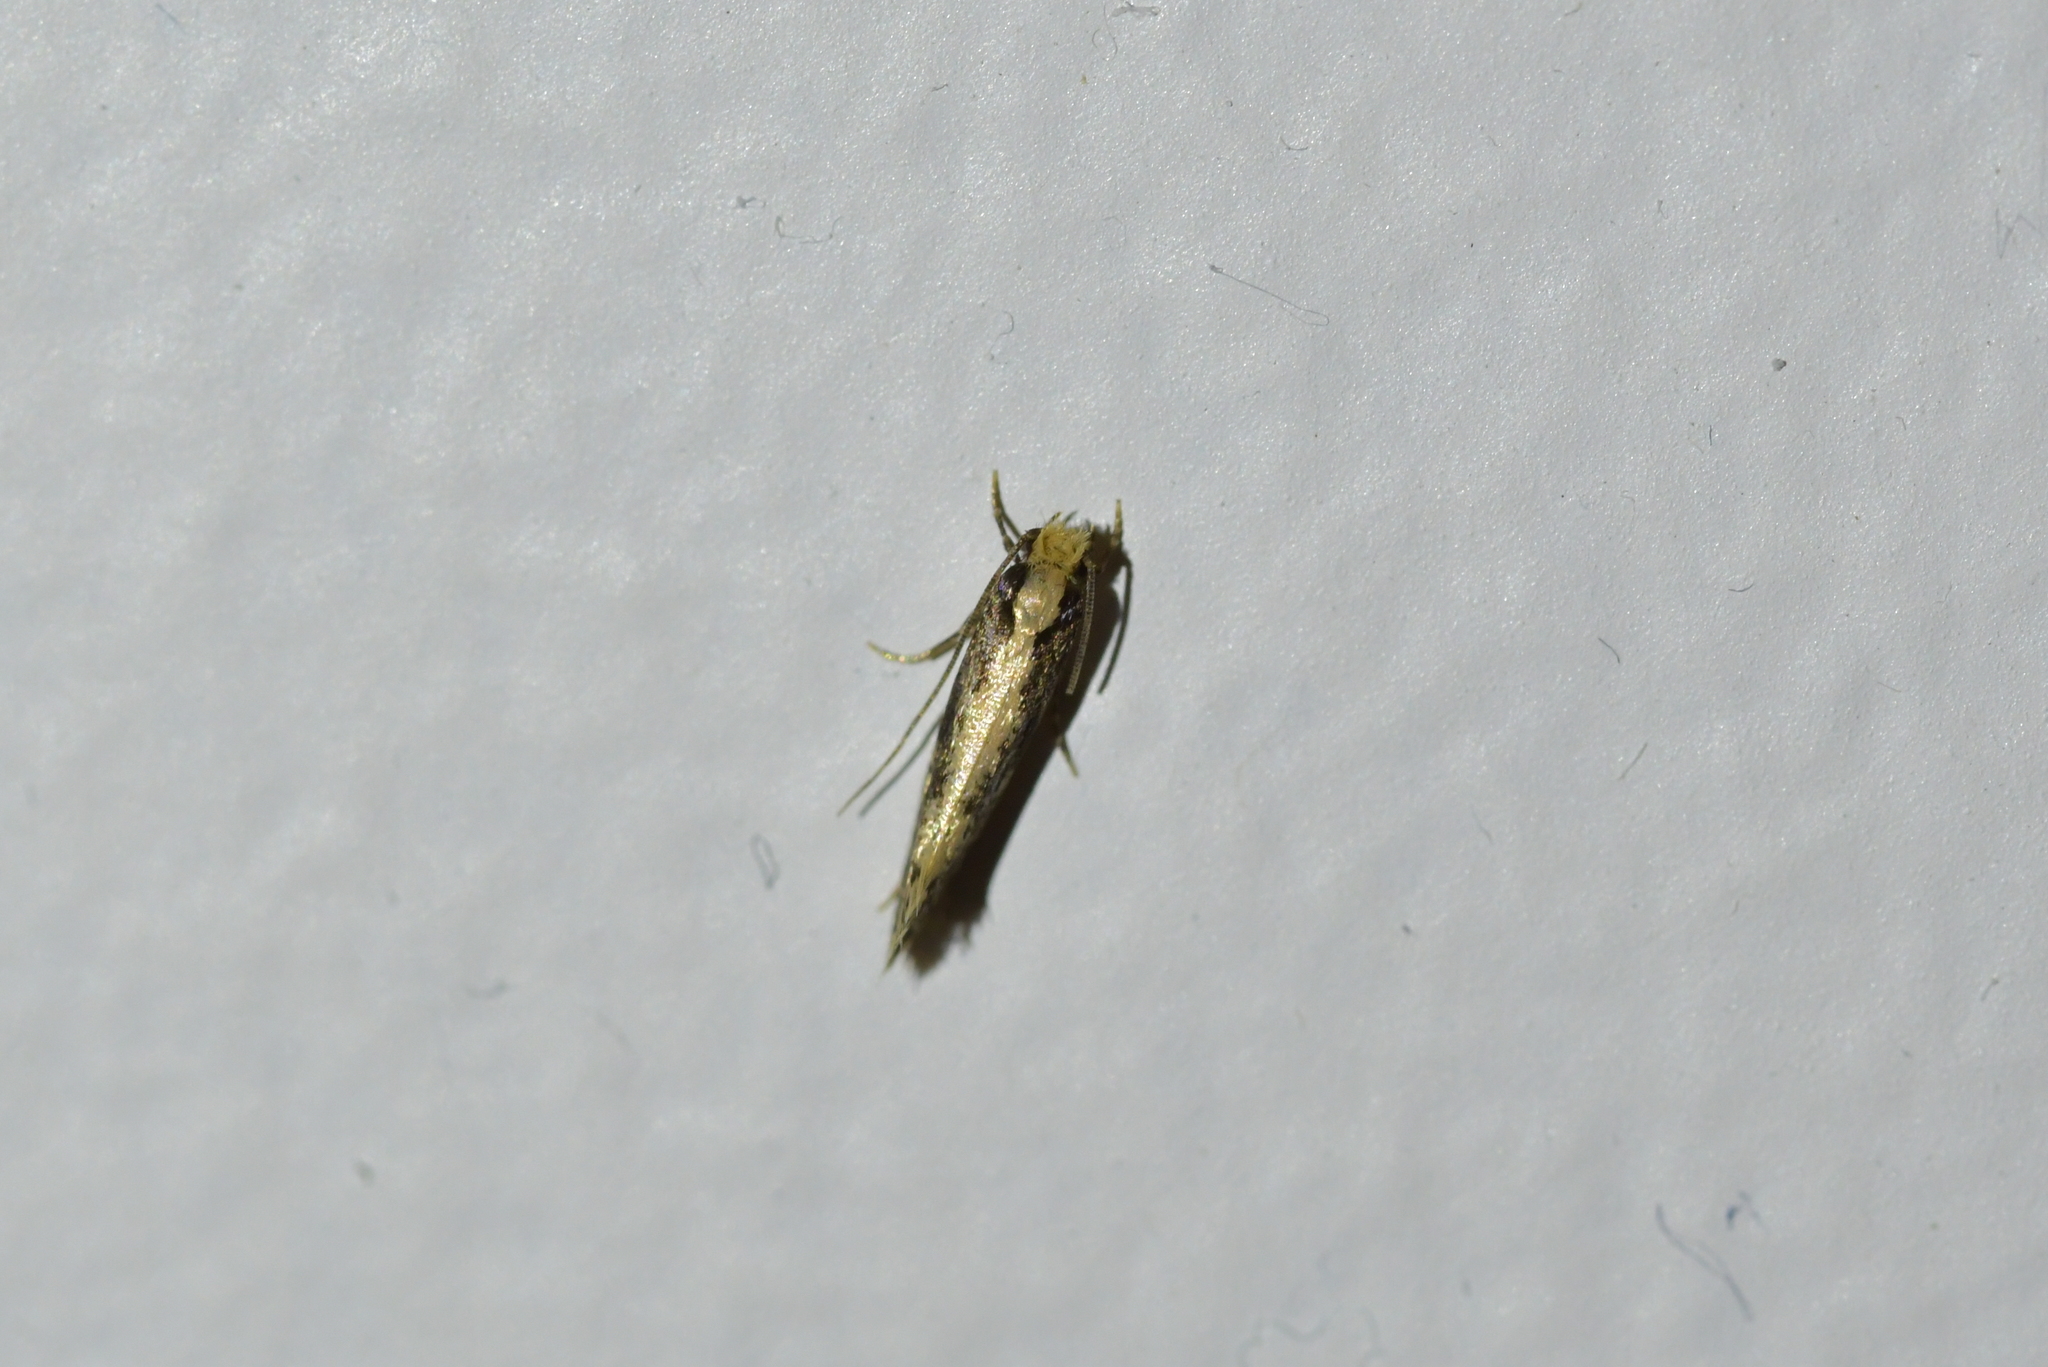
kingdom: Animalia
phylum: Arthropoda
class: Insecta
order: Lepidoptera
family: Tineidae
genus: Monopis
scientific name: Monopis crocicapitella
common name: Moth
